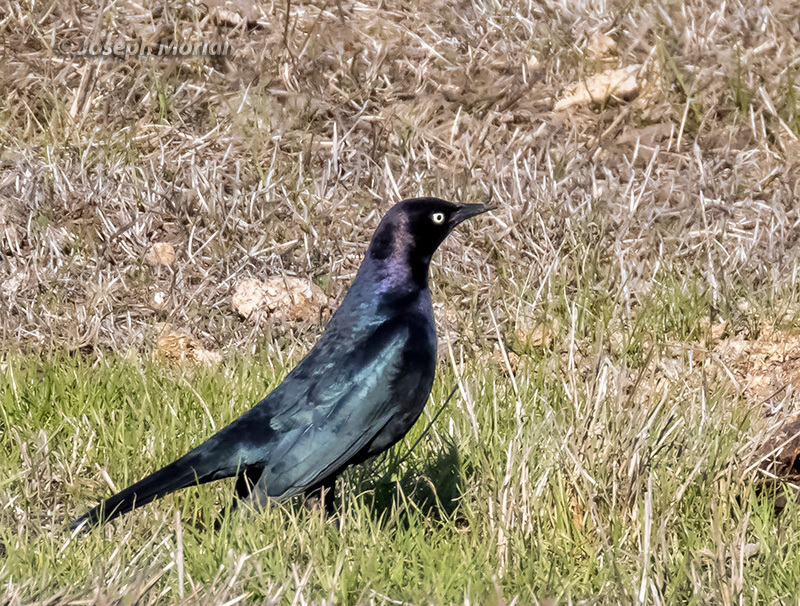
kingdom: Animalia
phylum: Chordata
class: Aves
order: Passeriformes
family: Icteridae
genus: Euphagus
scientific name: Euphagus cyanocephalus
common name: Brewer's blackbird
